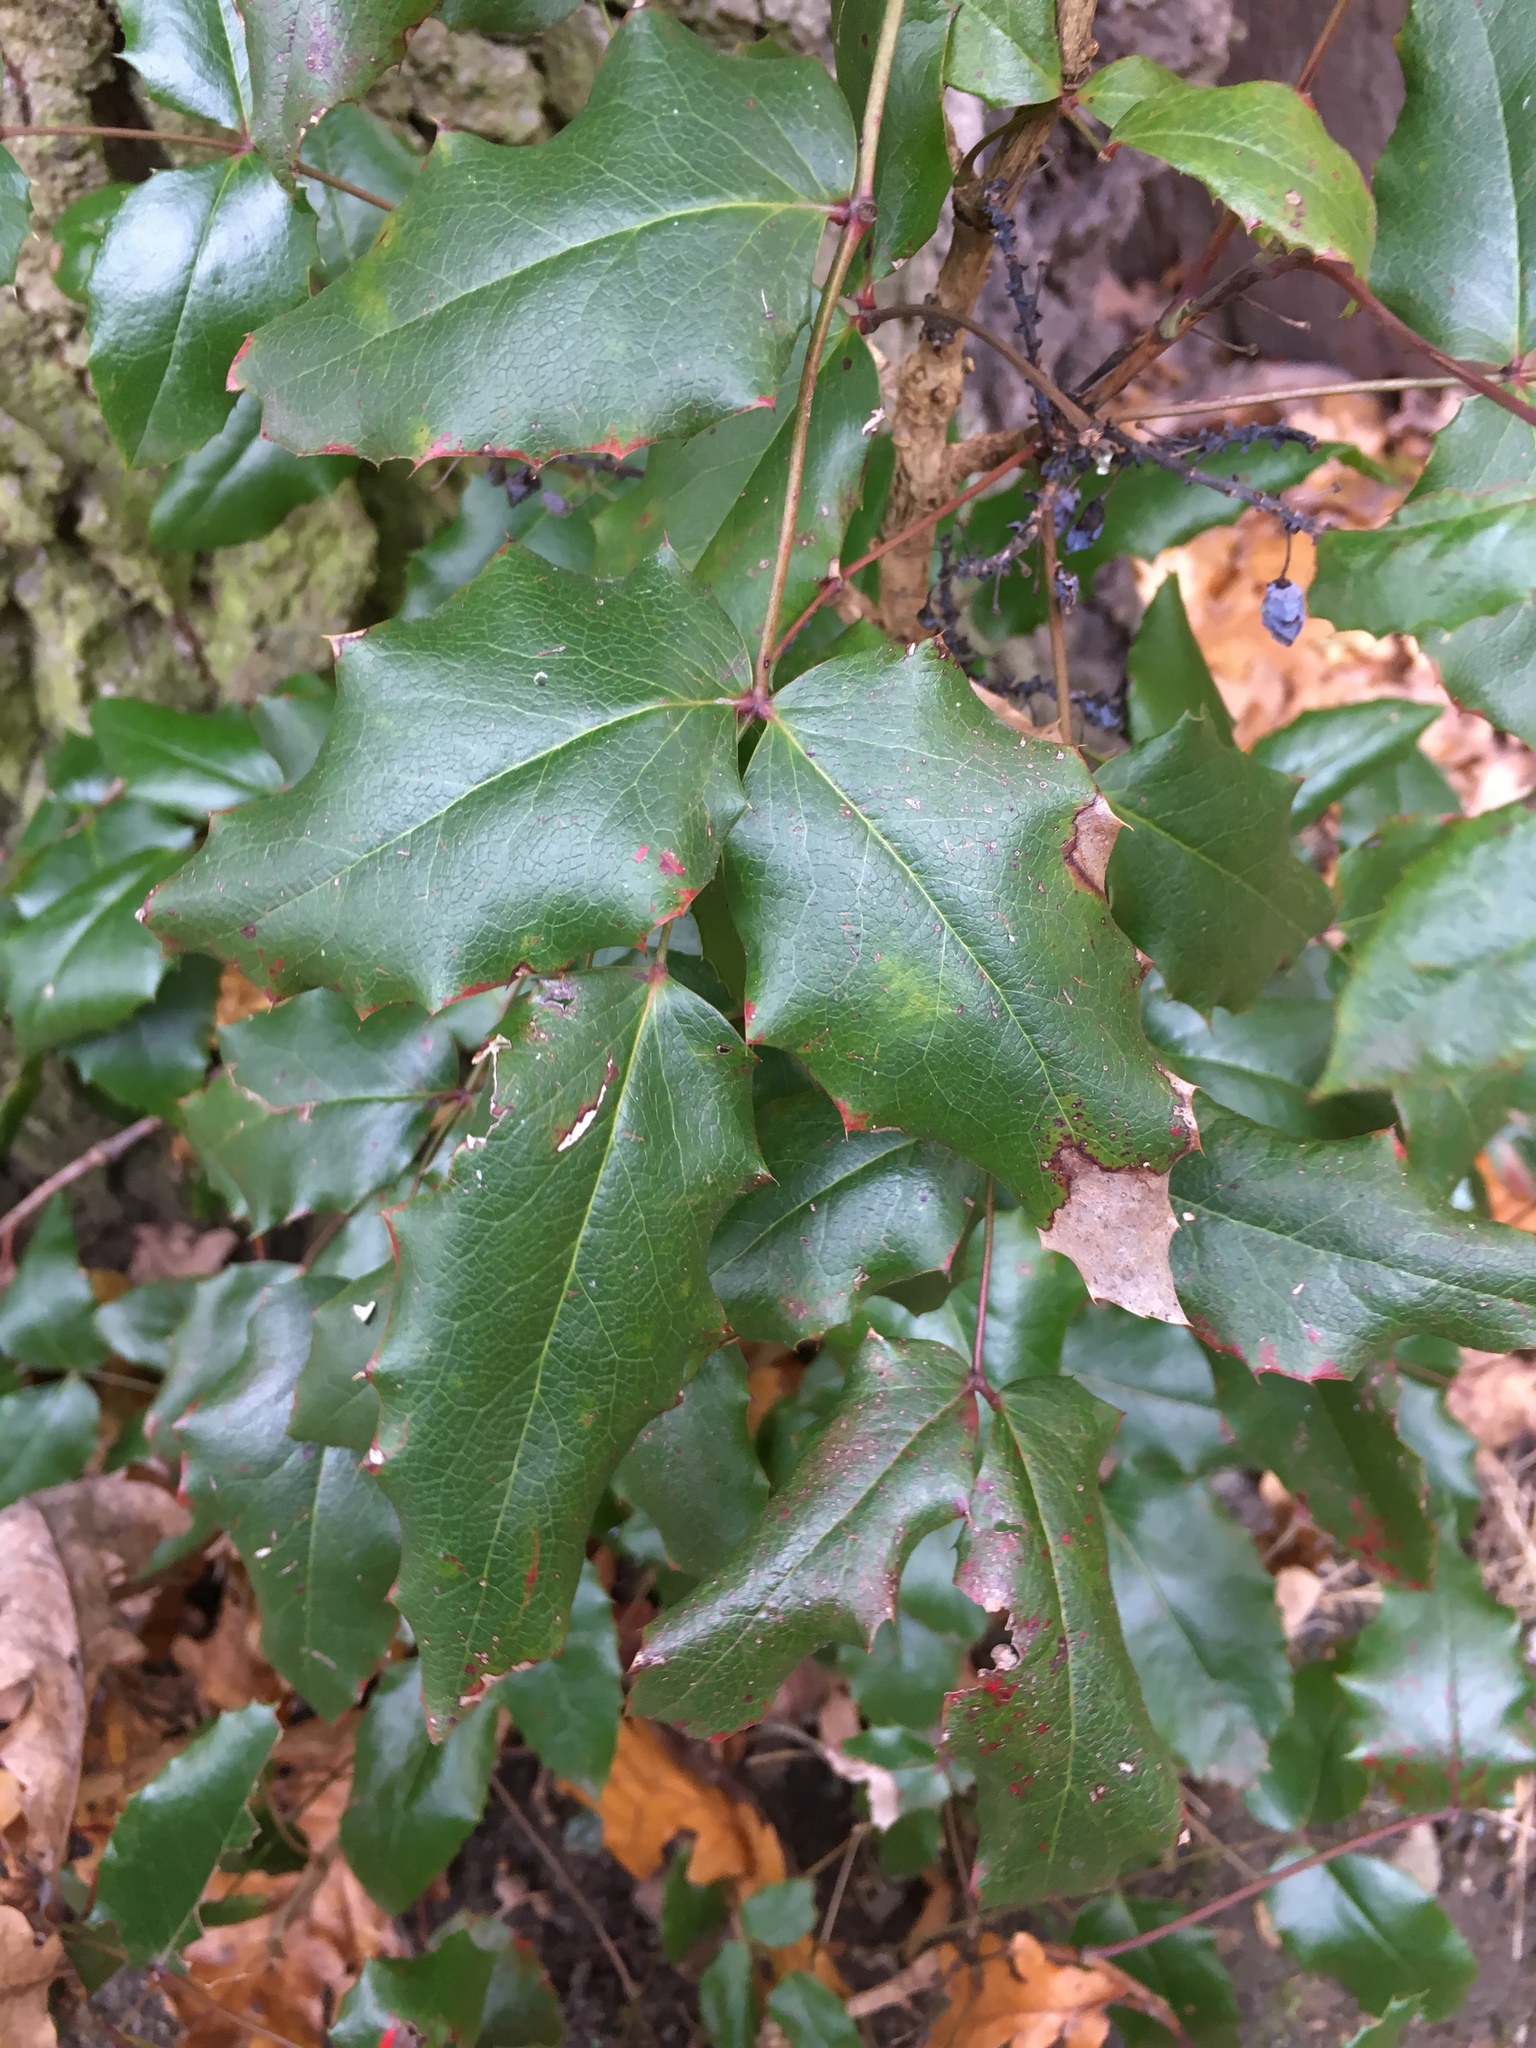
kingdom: Plantae
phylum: Tracheophyta
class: Magnoliopsida
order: Ranunculales
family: Berberidaceae
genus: Mahonia
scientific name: Mahonia aquifolium
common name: Oregon-grape
